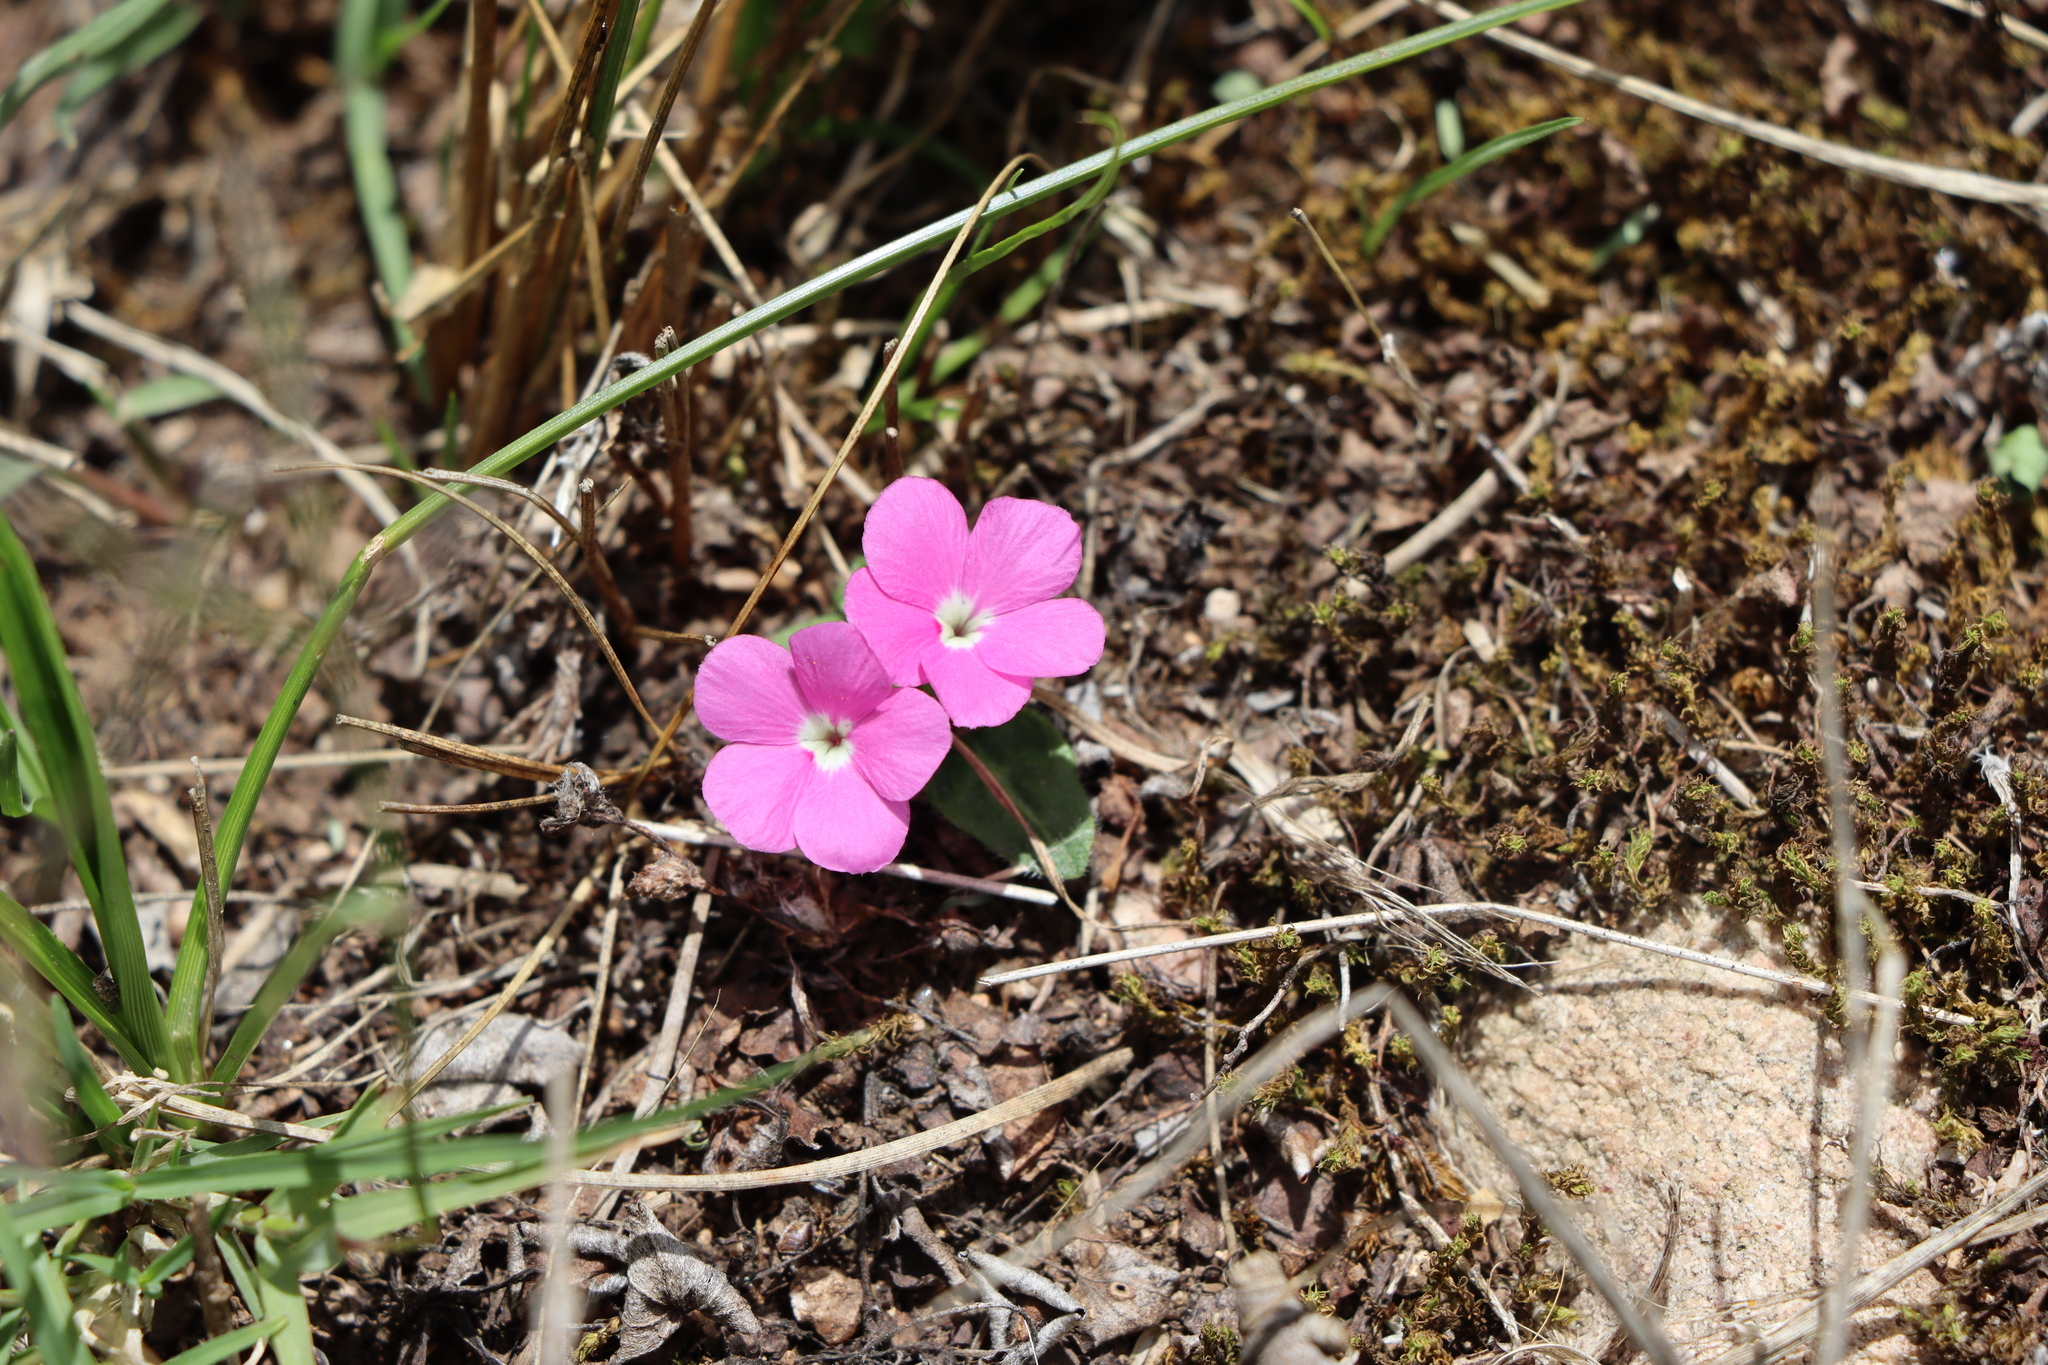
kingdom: Plantae
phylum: Tracheophyta
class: Magnoliopsida
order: Lamiales
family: Acanthaceae
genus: Stenandrium
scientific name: Stenandrium dulce
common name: Pinklet
